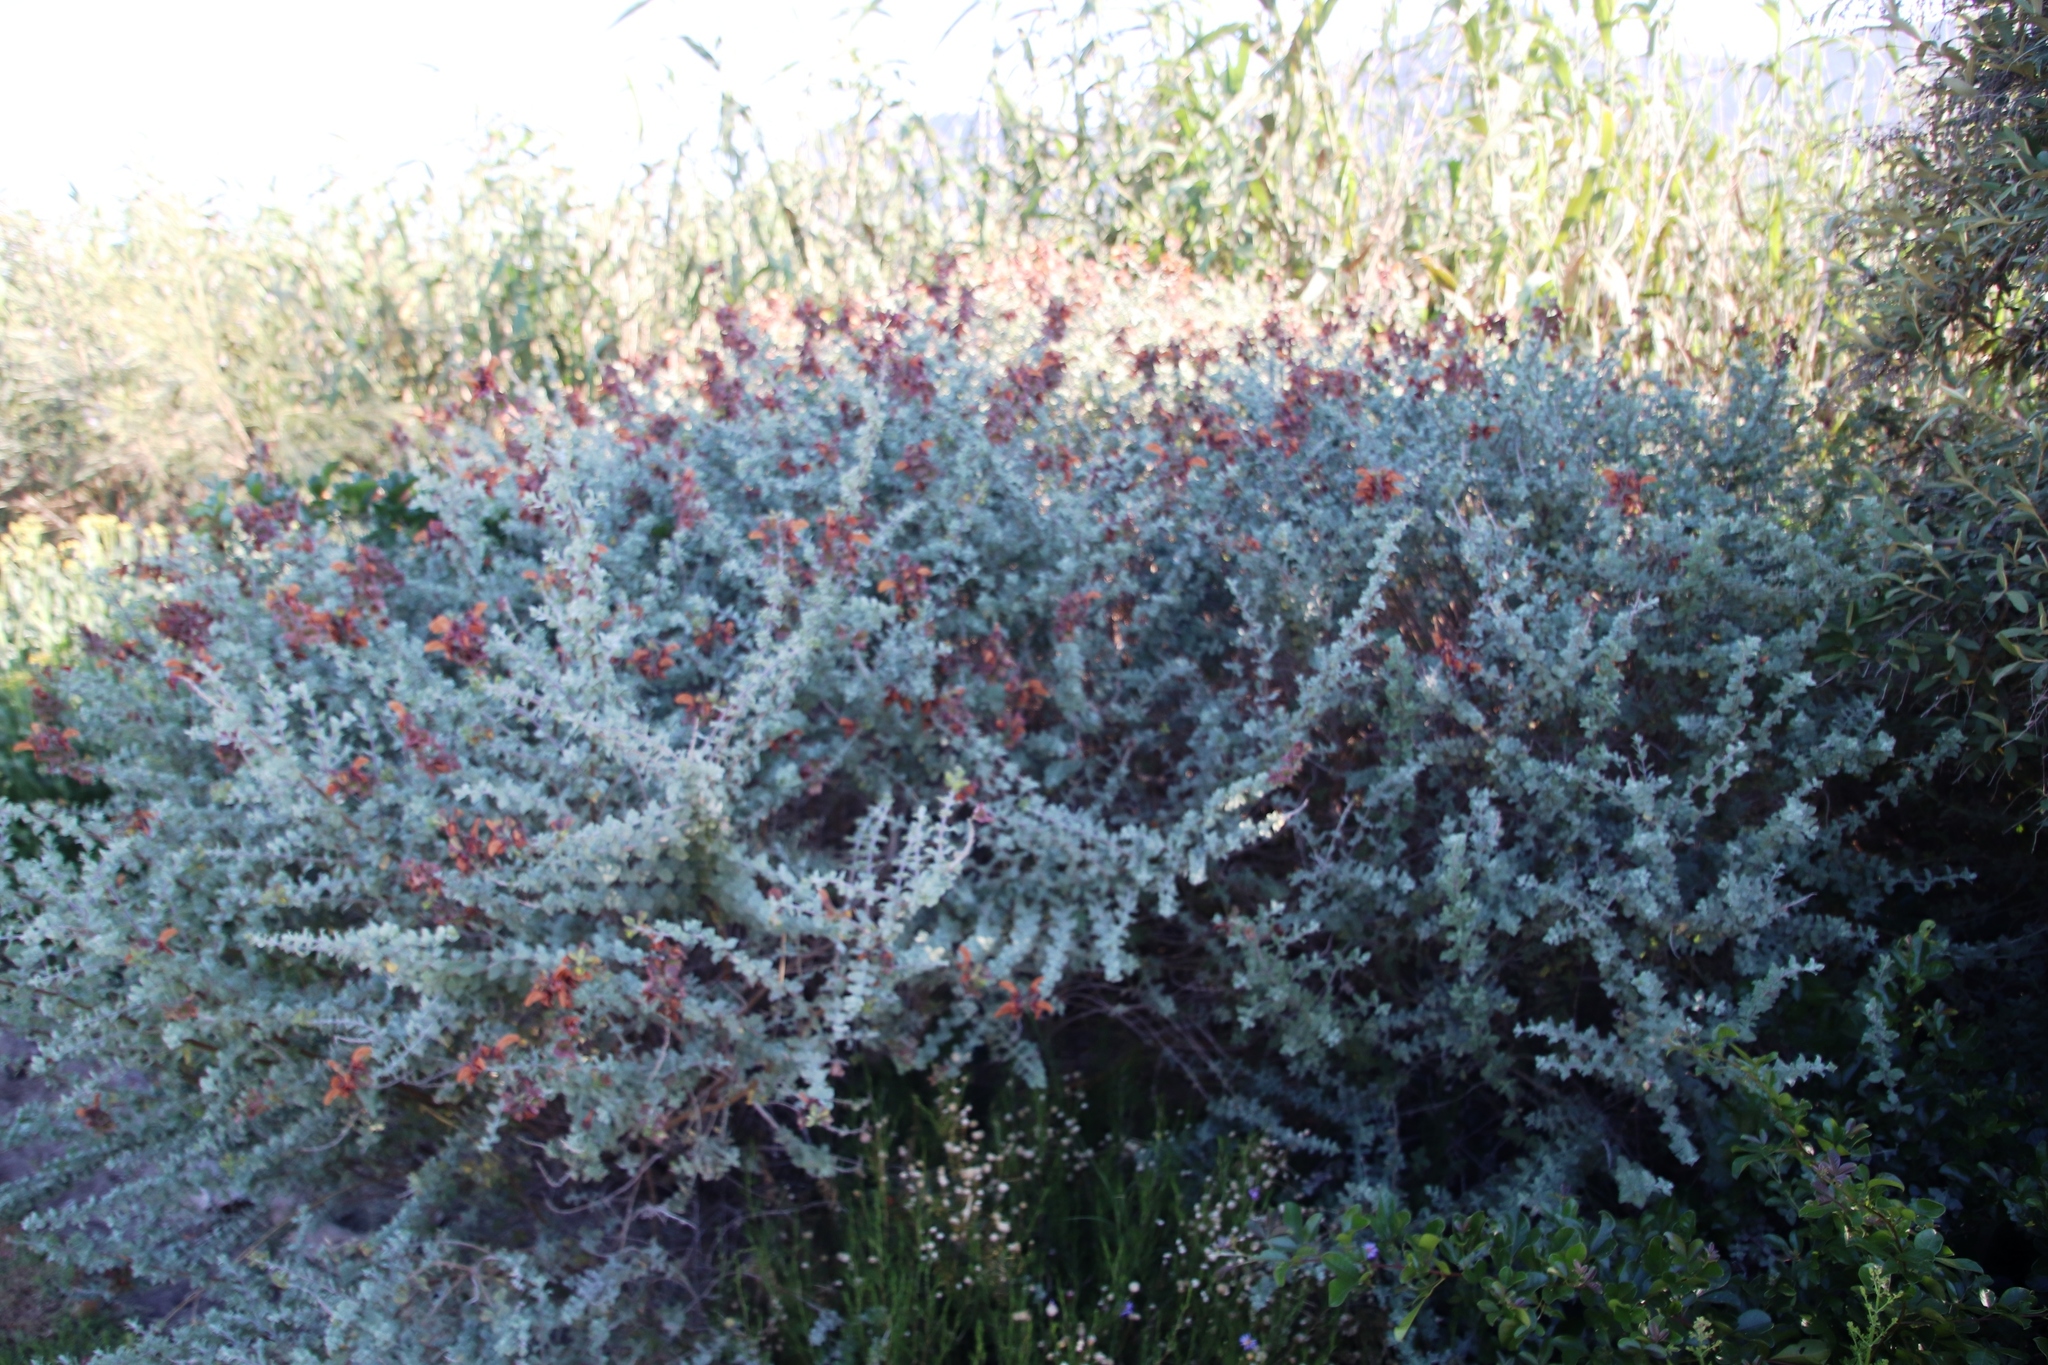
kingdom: Plantae
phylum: Tracheophyta
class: Magnoliopsida
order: Lamiales
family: Lamiaceae
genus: Salvia
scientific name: Salvia aurea
